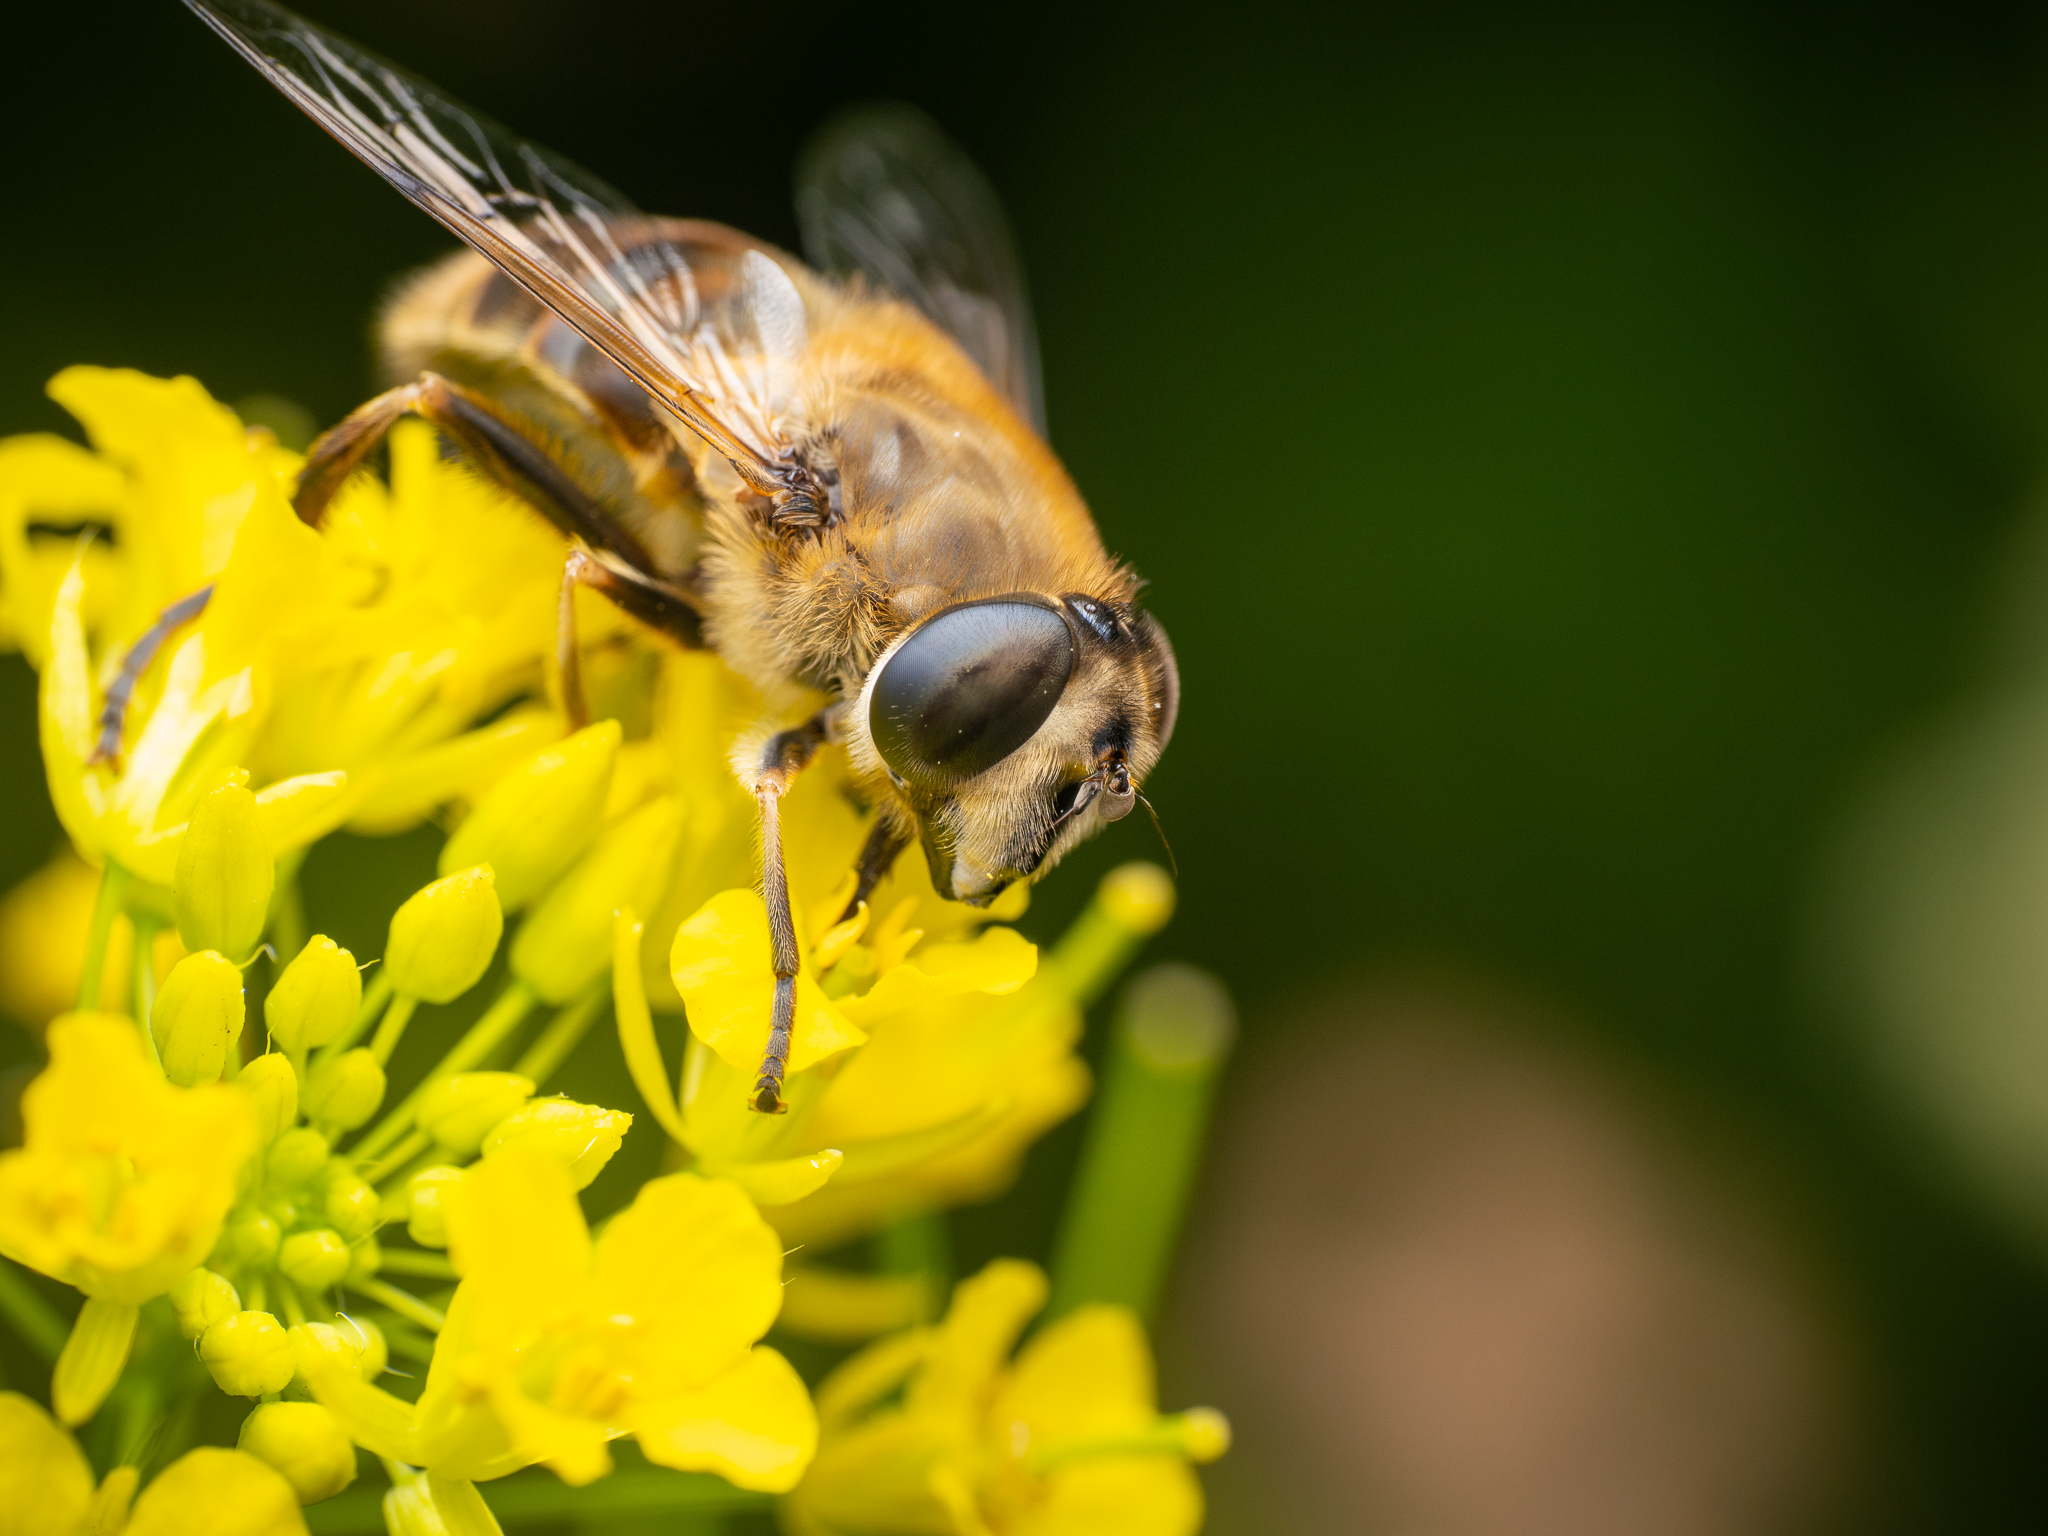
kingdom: Animalia
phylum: Arthropoda
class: Insecta
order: Diptera
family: Syrphidae
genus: Eristalis
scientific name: Eristalis tenax
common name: Drone fly
